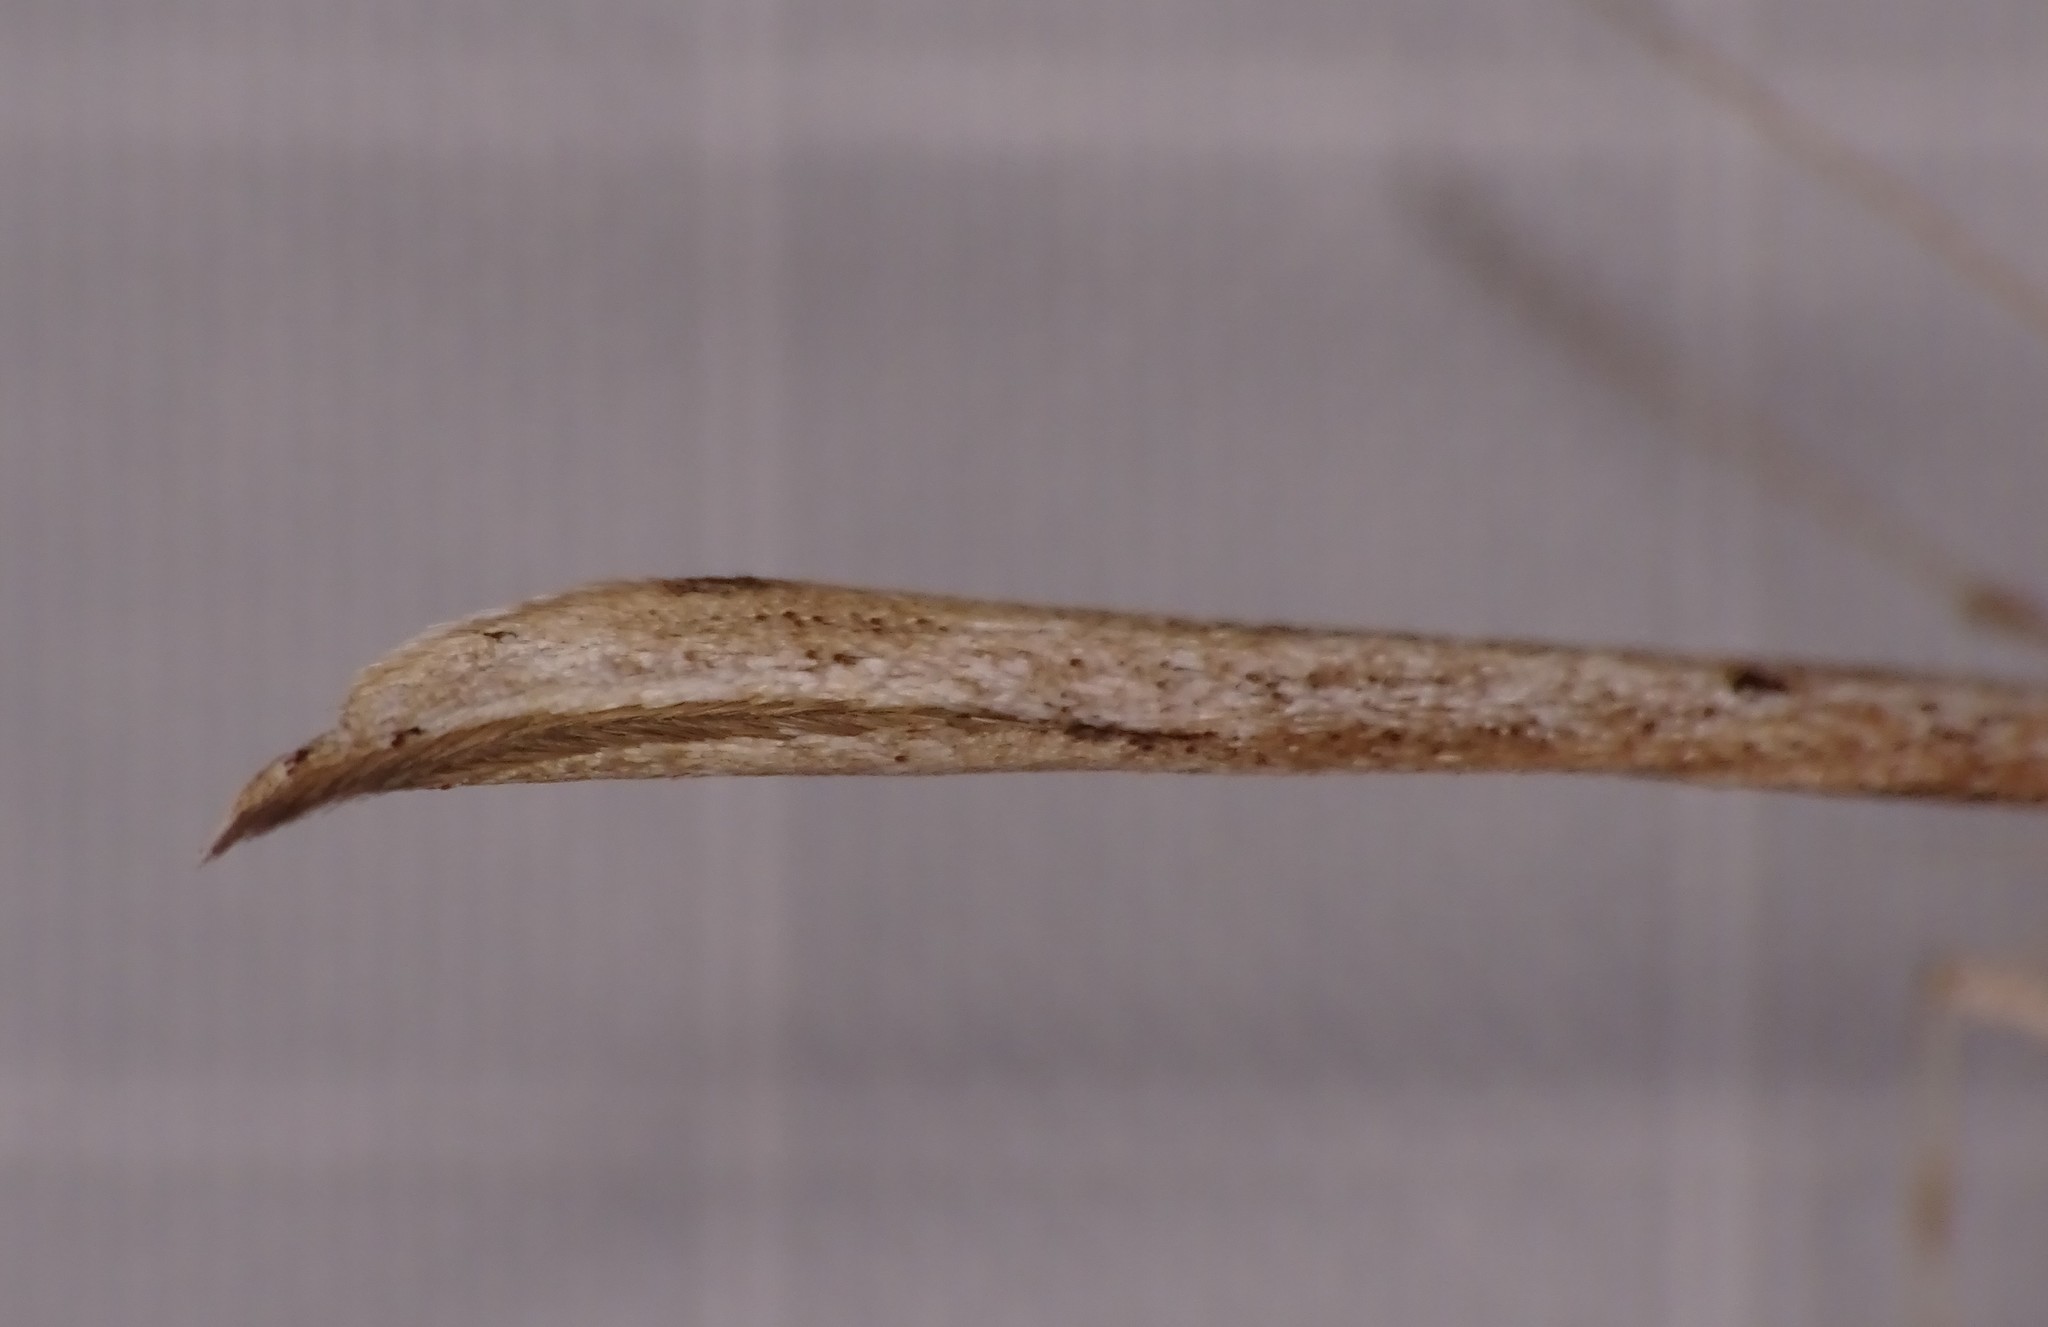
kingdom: Animalia
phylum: Arthropoda
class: Insecta
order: Lepidoptera
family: Pterophoridae
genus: Emmelina
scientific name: Emmelina monodactyla
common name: Common plume
